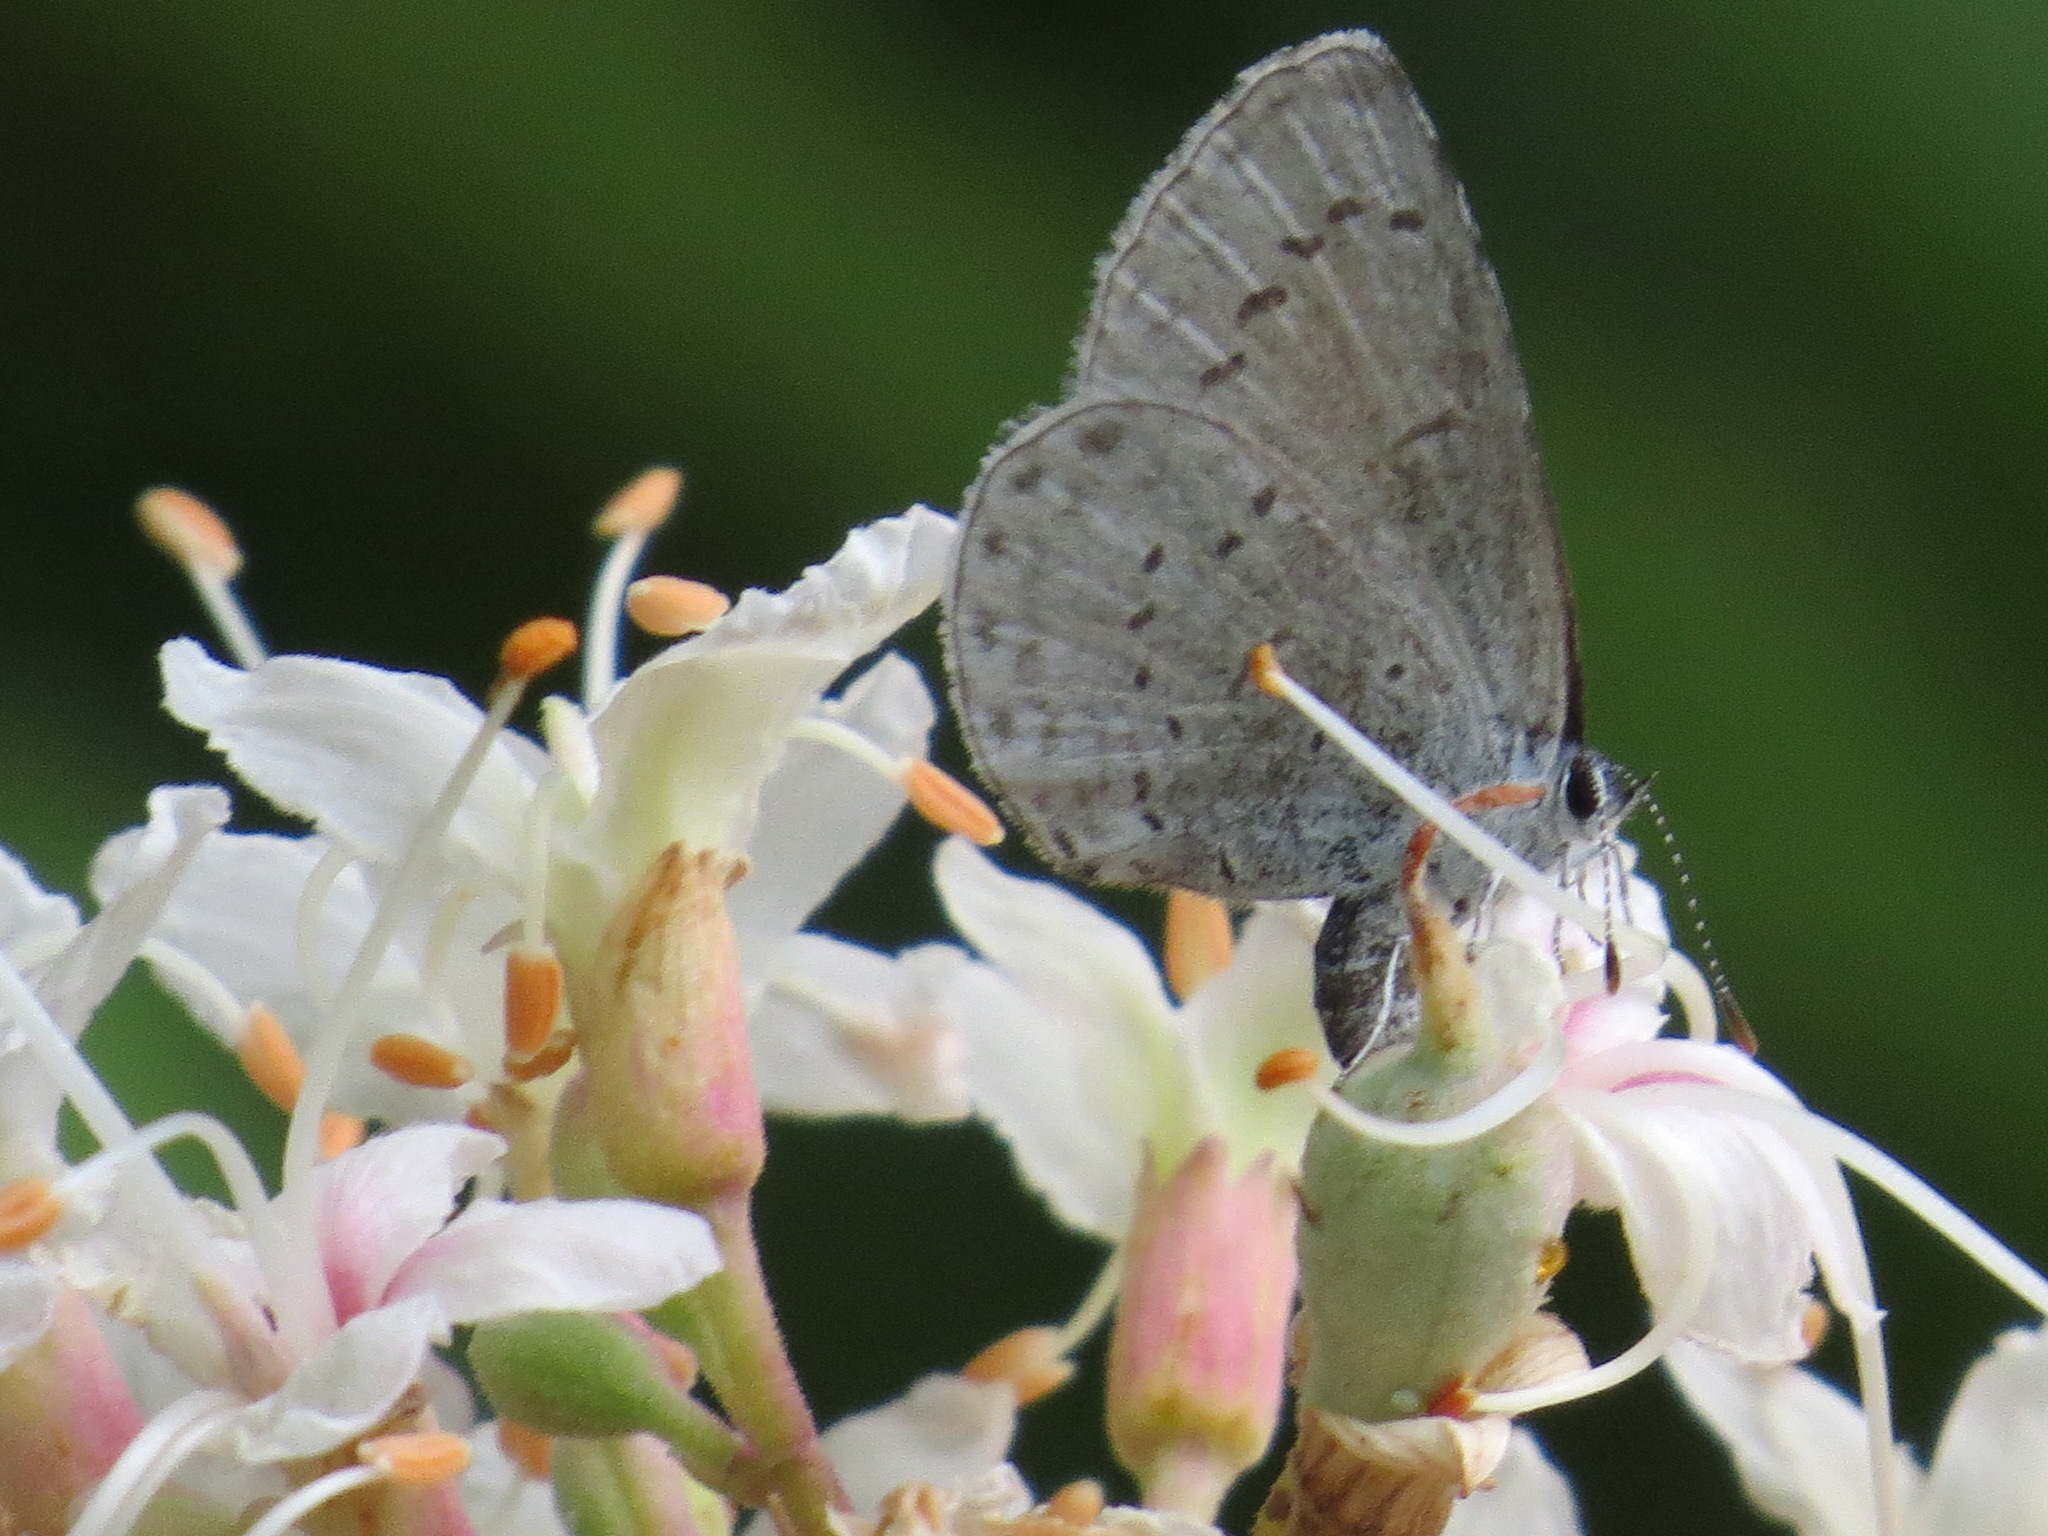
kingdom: Animalia
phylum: Arthropoda
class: Insecta
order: Lepidoptera
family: Lycaenidae
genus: Celastrina
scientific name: Celastrina ladon
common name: Spring azure
